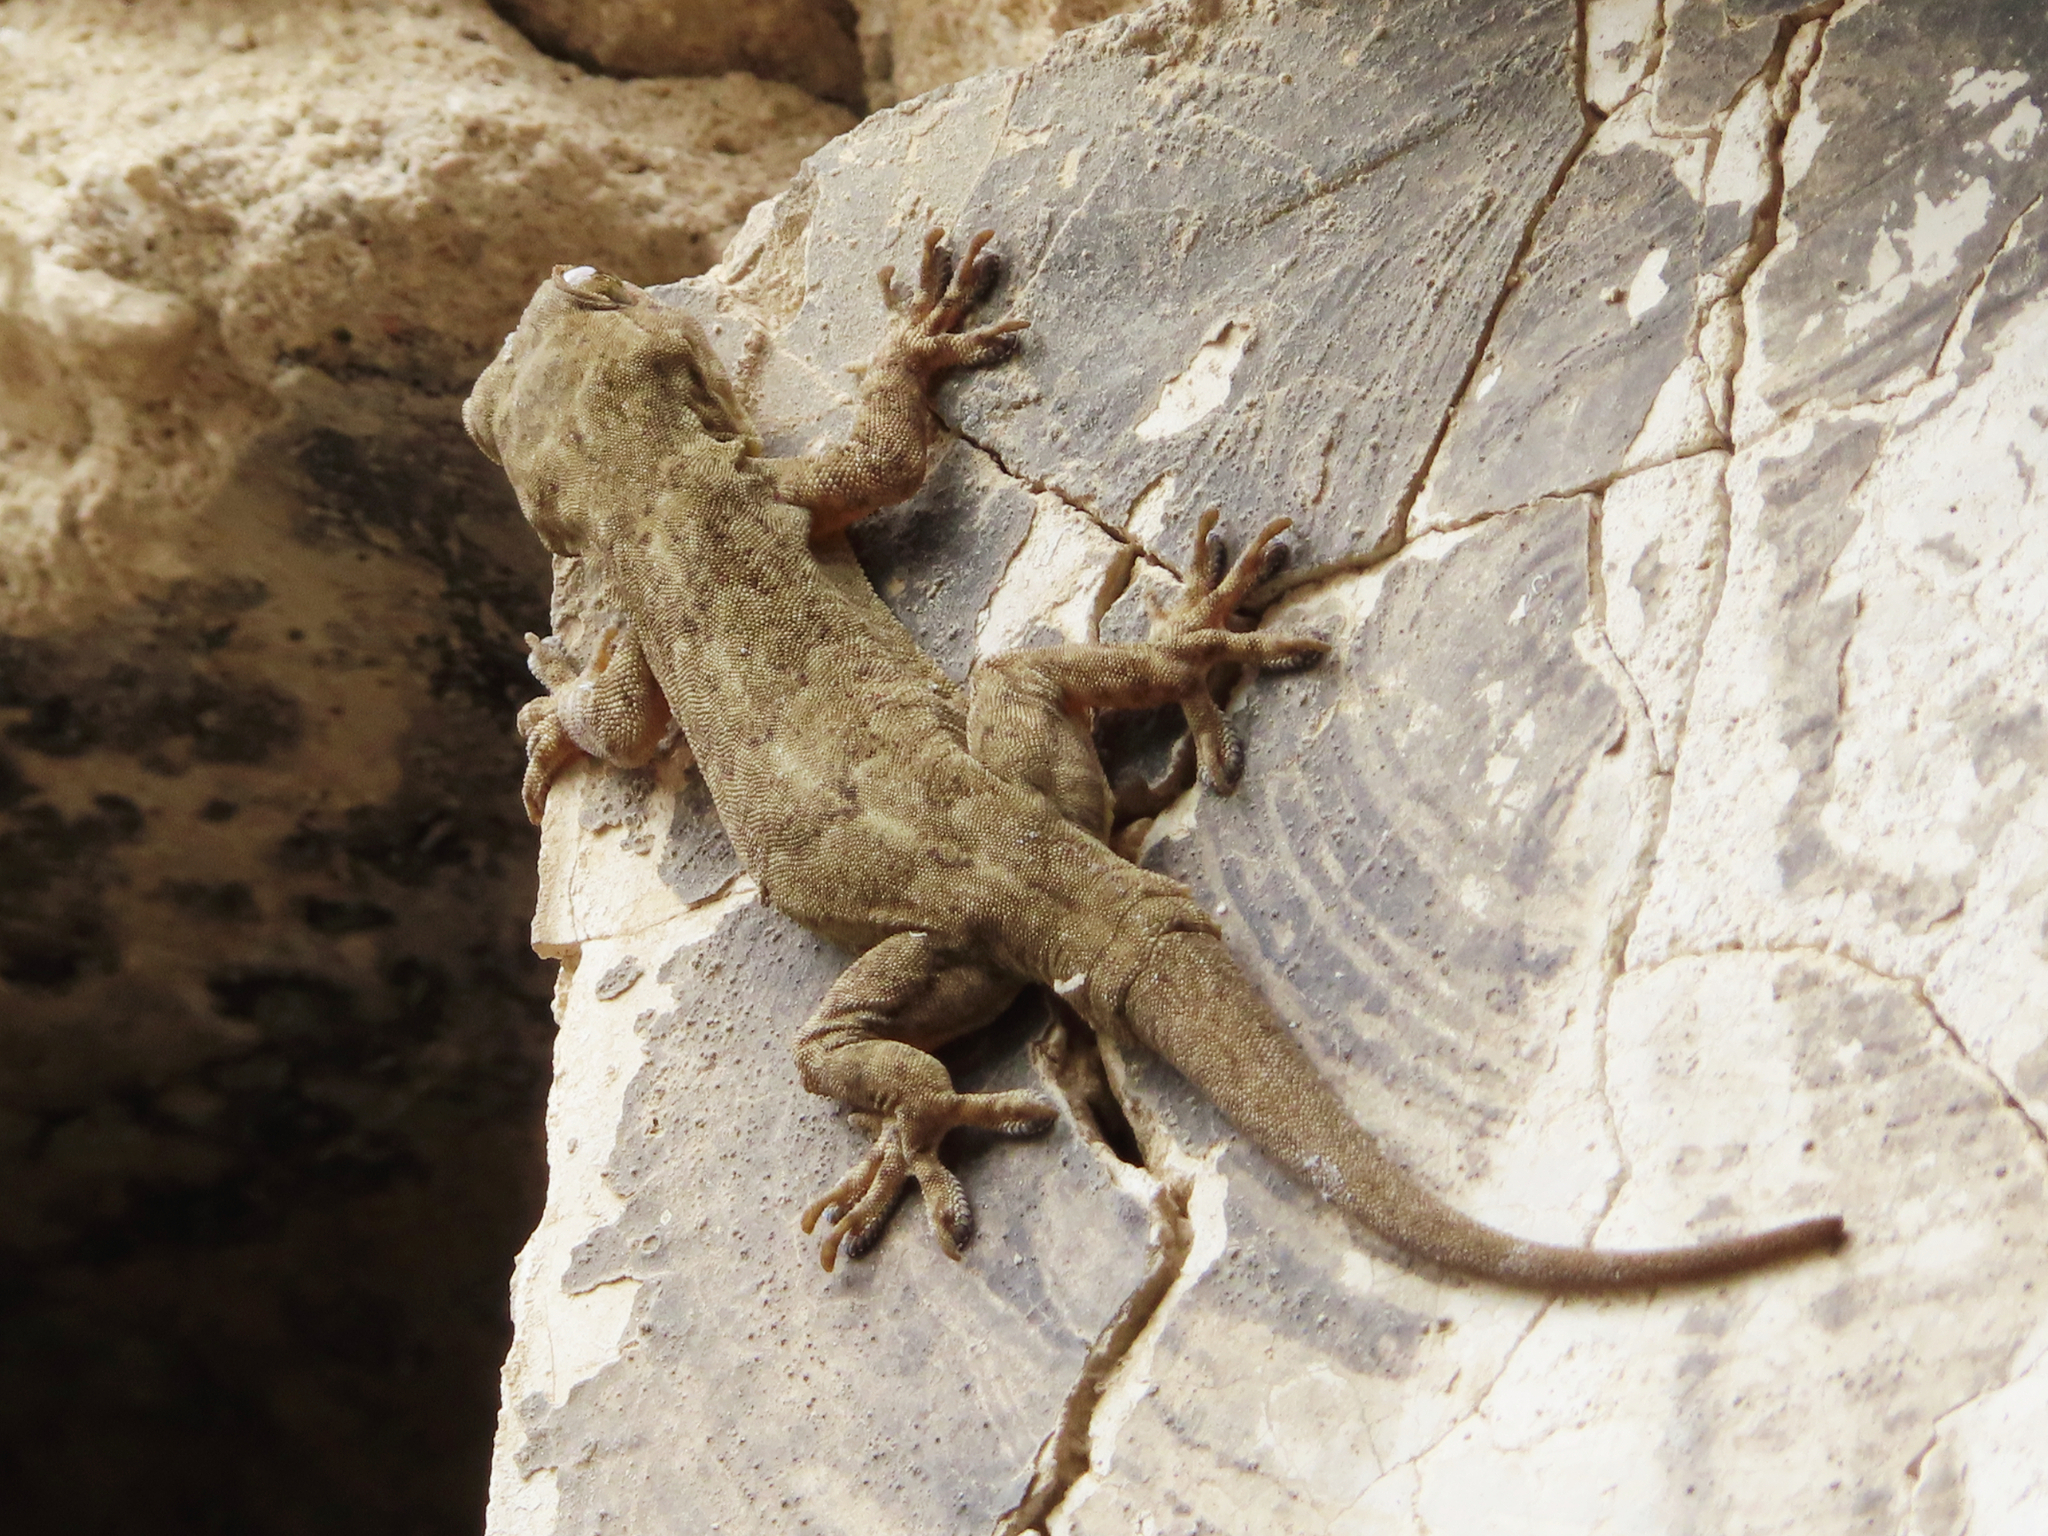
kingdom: Animalia
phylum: Chordata
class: Squamata
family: Gekkonidae
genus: Hemidactylus
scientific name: Hemidactylus flaviviridis
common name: Northern house gecko
